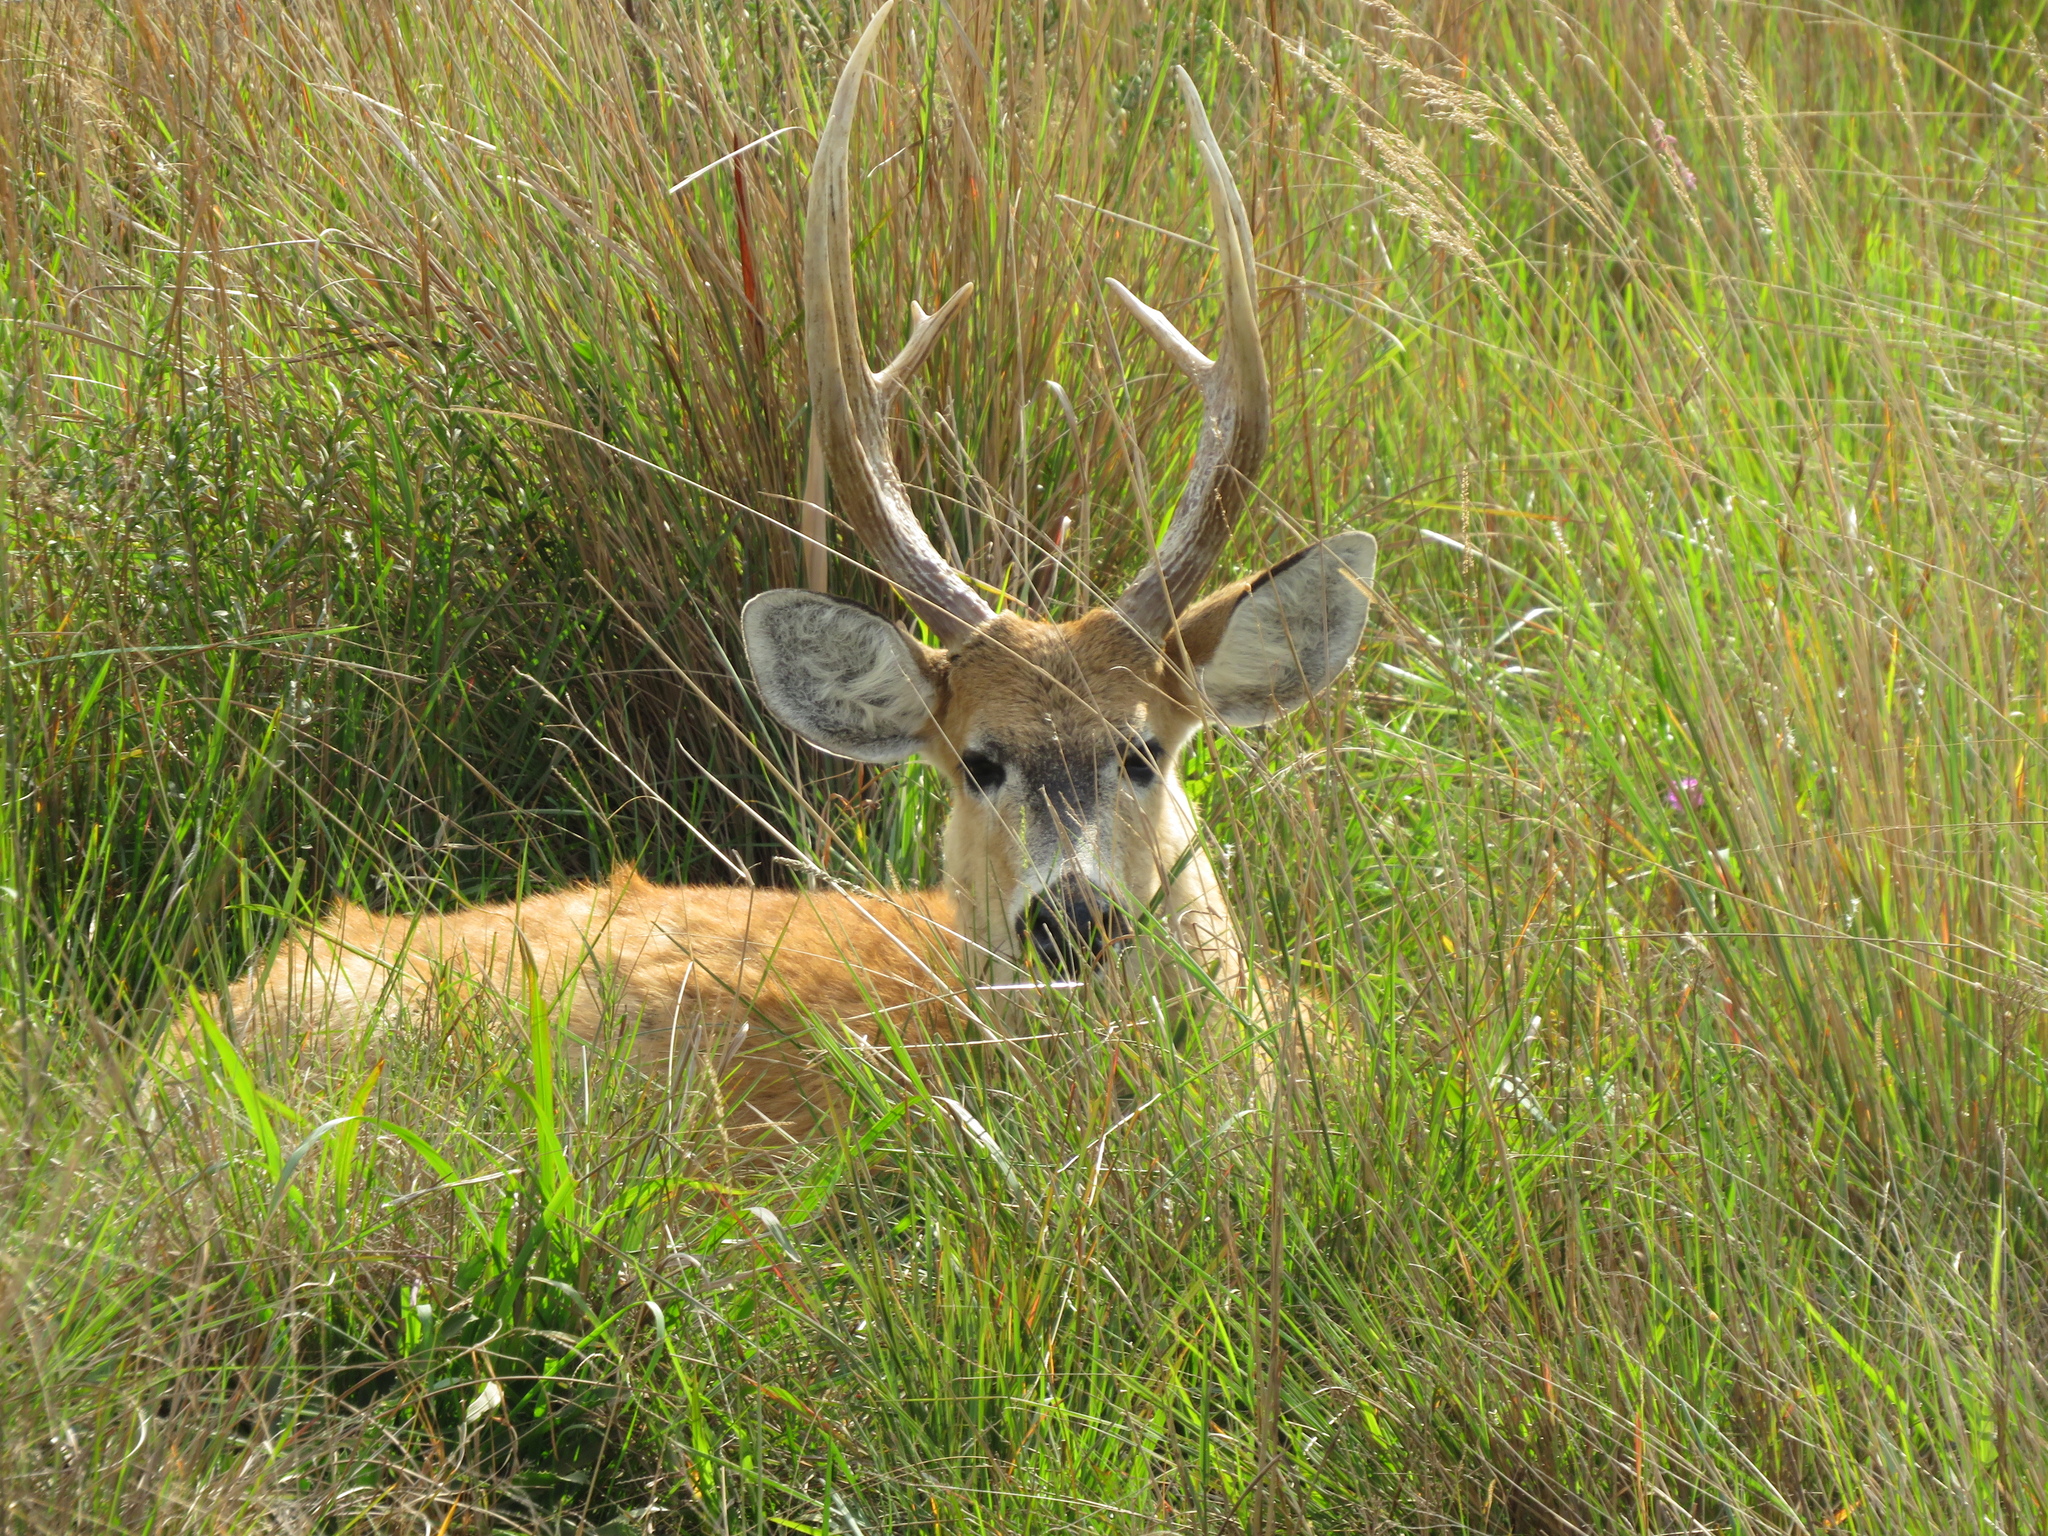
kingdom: Animalia
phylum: Chordata
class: Mammalia
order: Artiodactyla
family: Cervidae
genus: Blastocerus
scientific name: Blastocerus dichotomus
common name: Marsh deer
